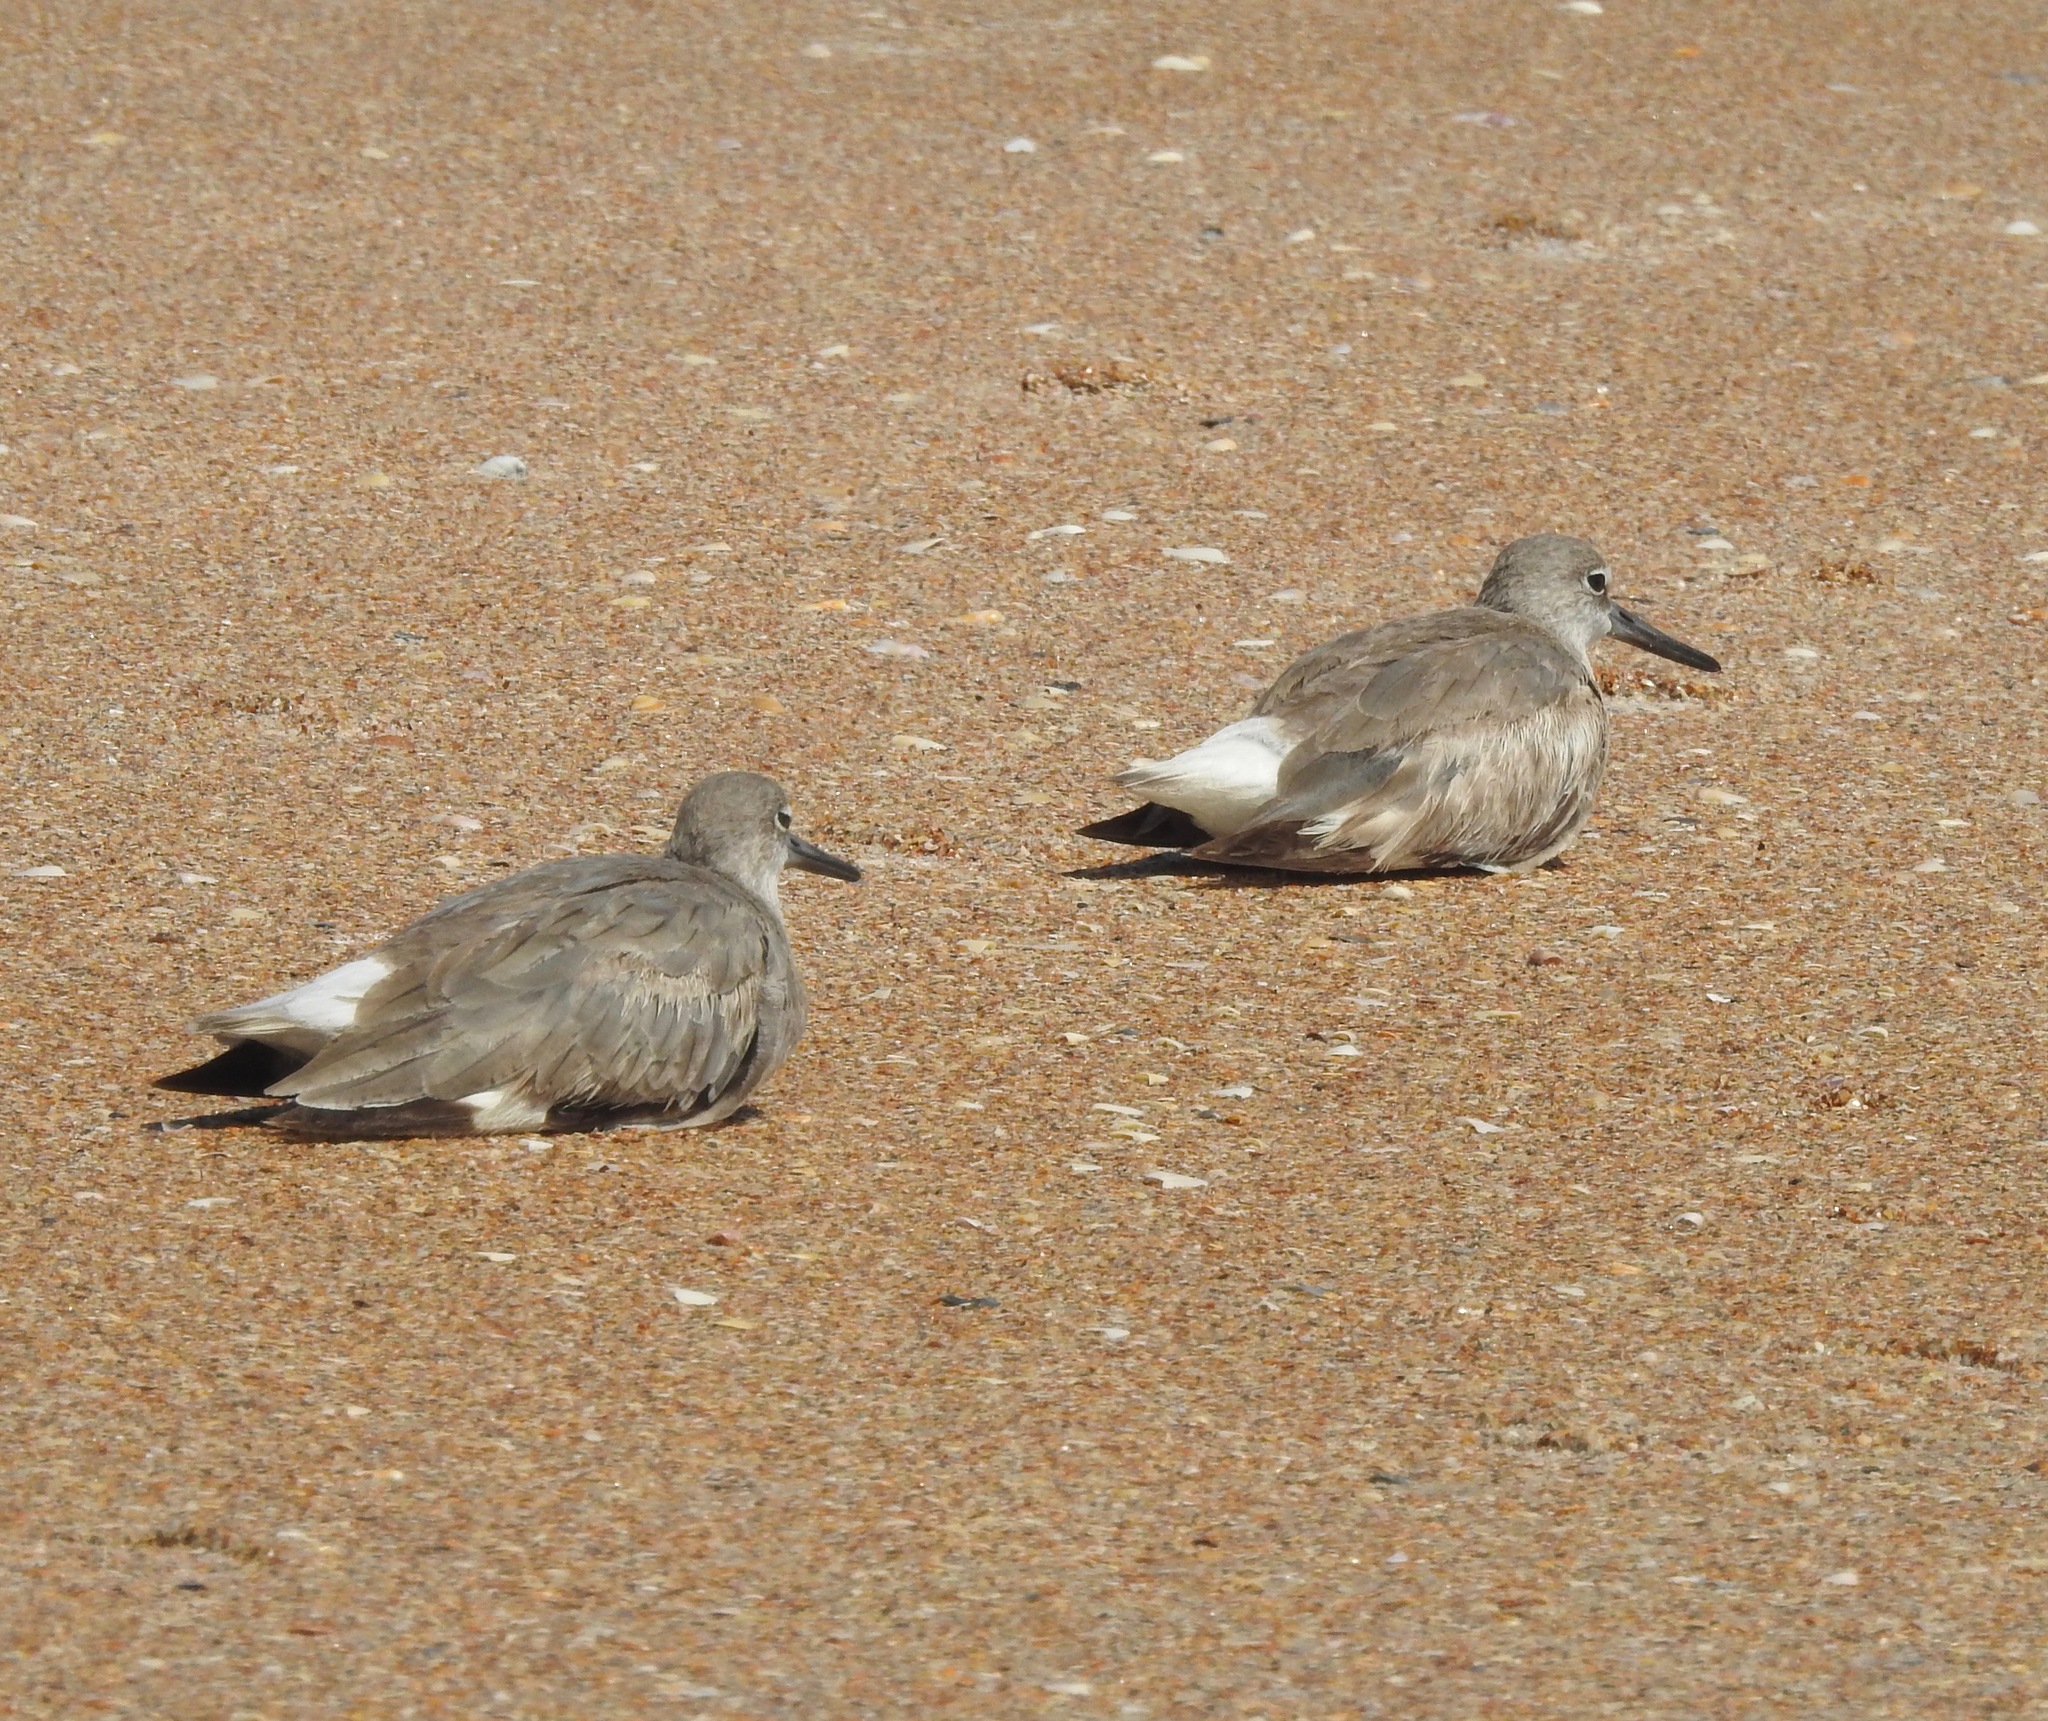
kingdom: Animalia
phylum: Chordata
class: Aves
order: Charadriiformes
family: Scolopacidae
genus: Tringa
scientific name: Tringa semipalmata
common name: Willet
